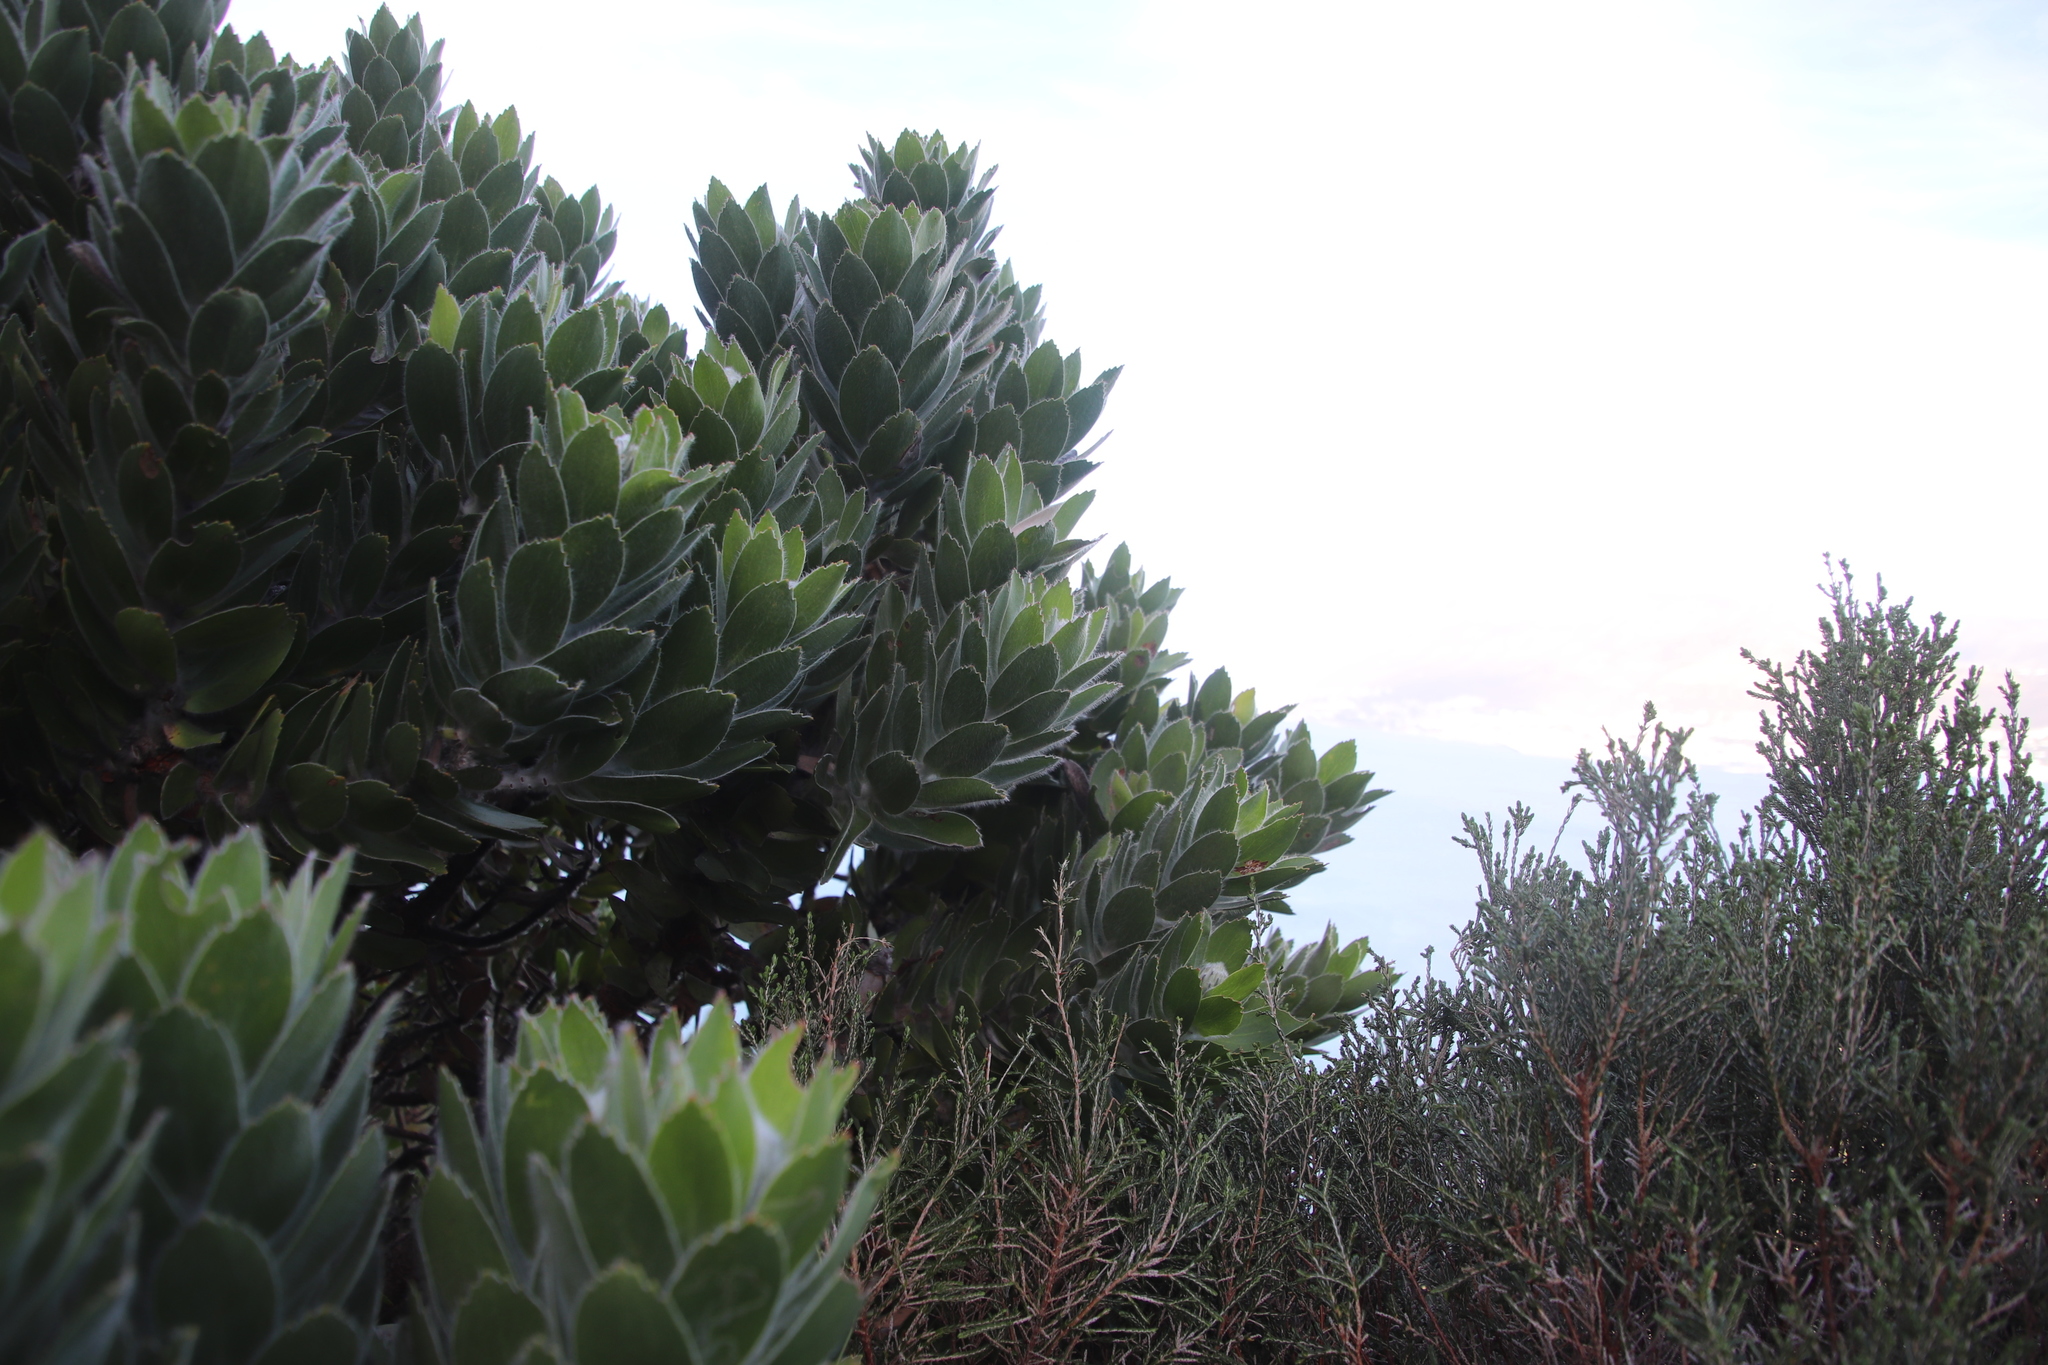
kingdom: Plantae
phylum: Tracheophyta
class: Magnoliopsida
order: Proteales
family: Proteaceae
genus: Leucospermum
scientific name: Leucospermum conocarpodendron
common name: Tree pincushion
